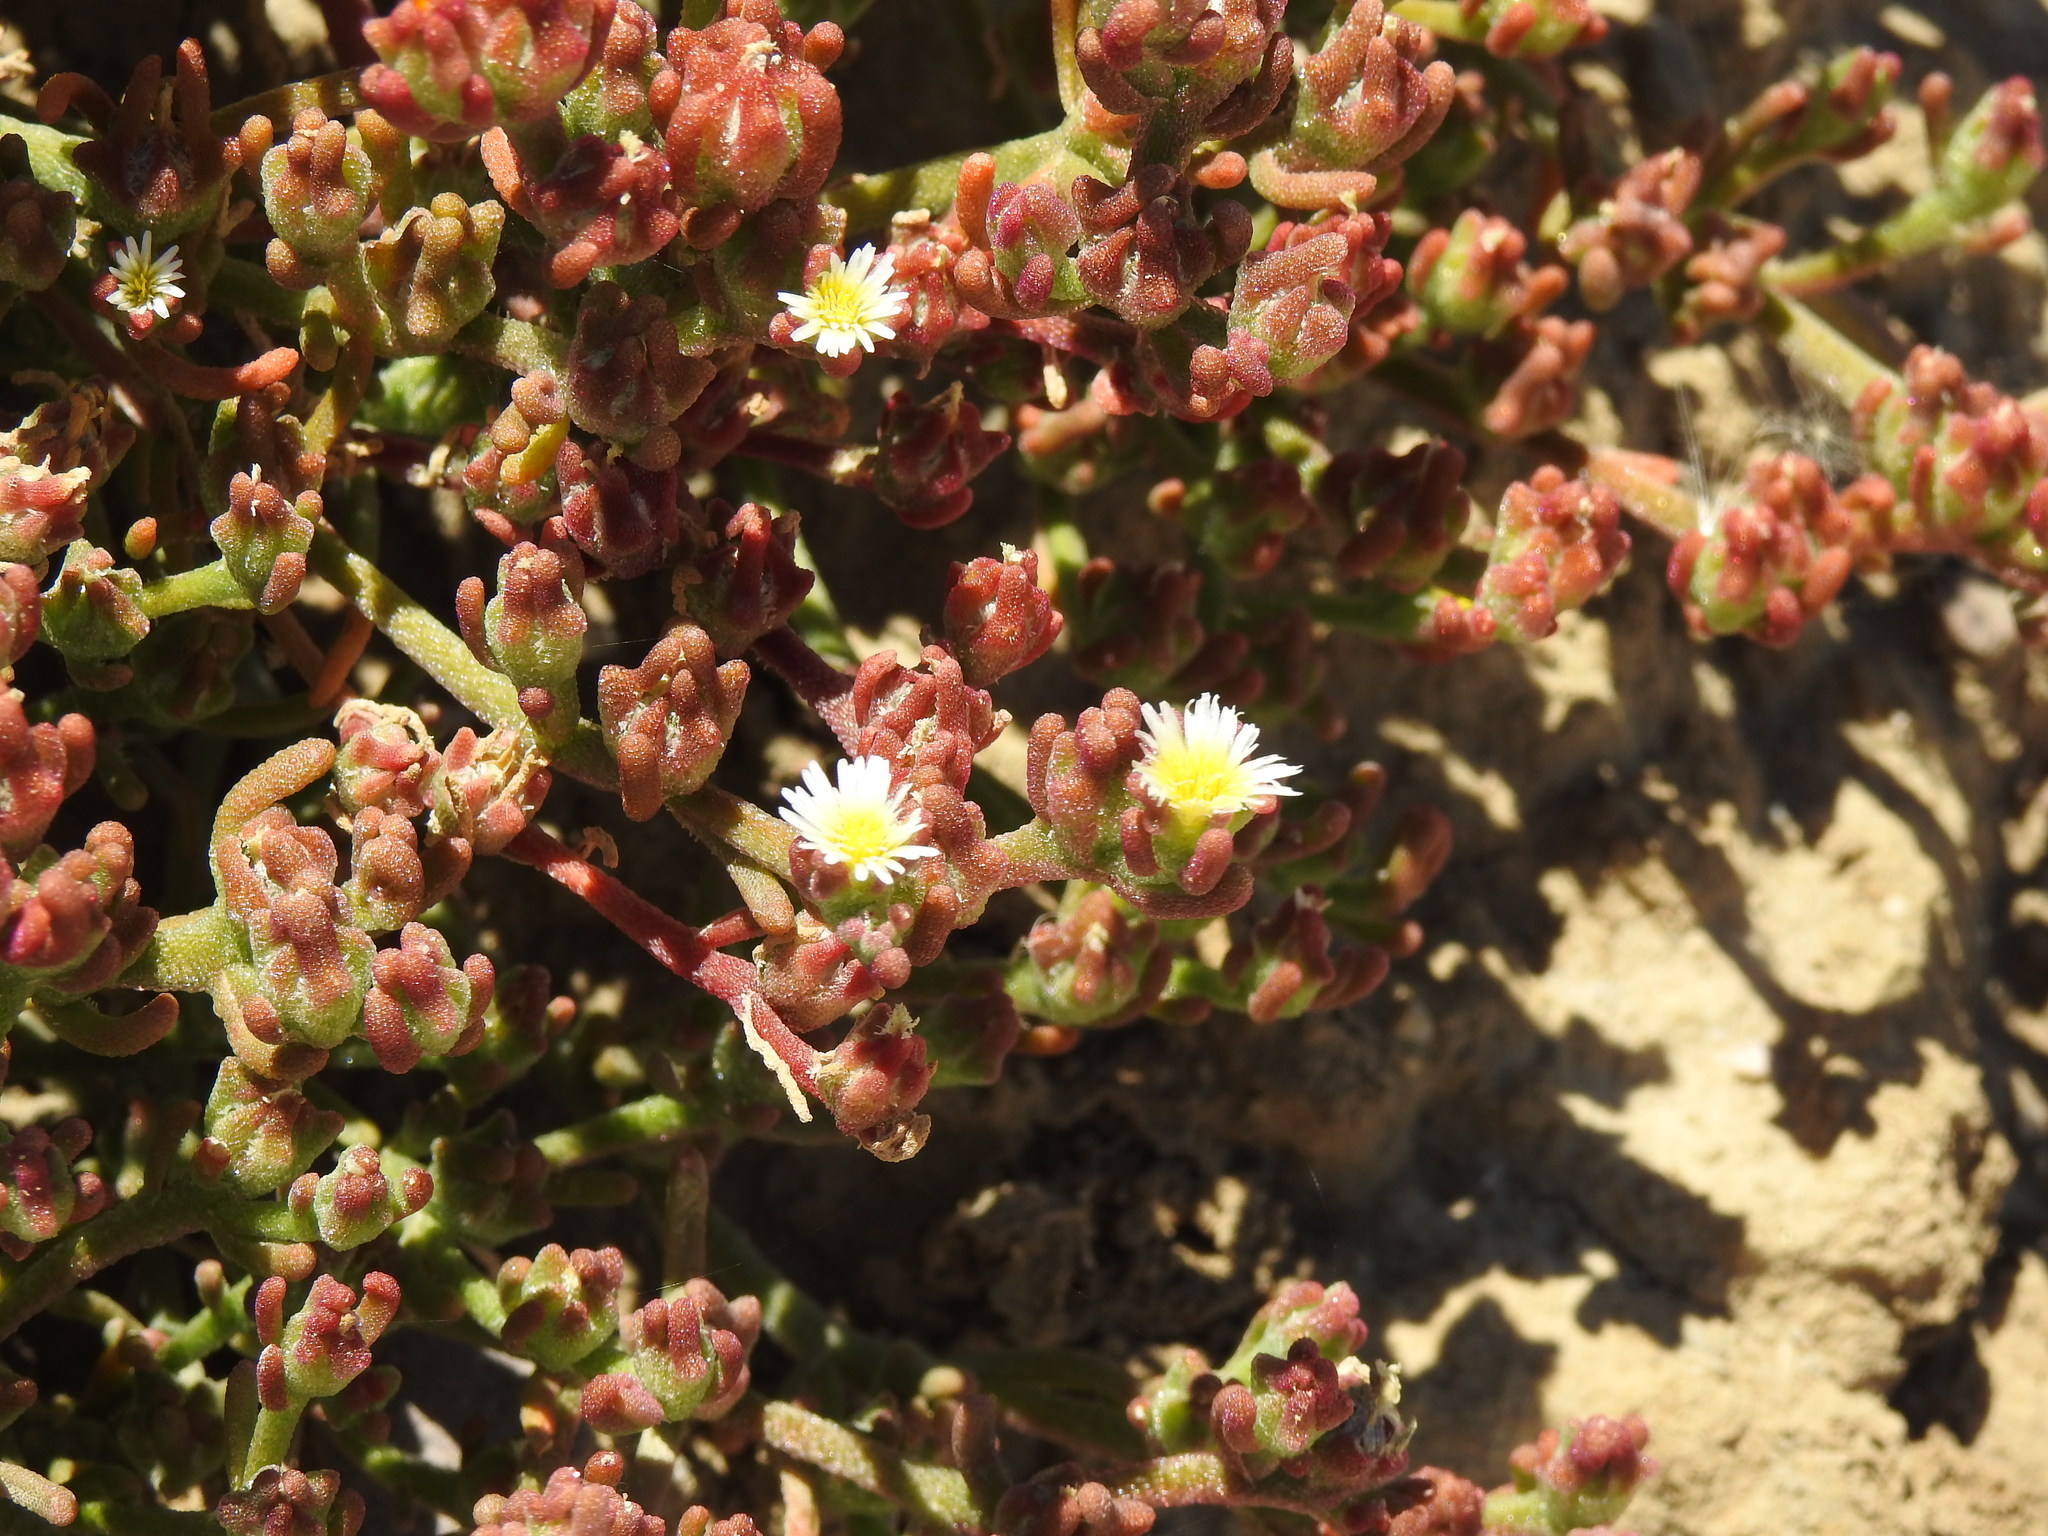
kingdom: Plantae
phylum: Tracheophyta
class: Magnoliopsida
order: Caryophyllales
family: Aizoaceae
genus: Mesembryanthemum
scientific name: Mesembryanthemum nodiflorum
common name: Slenderleaf iceplant
